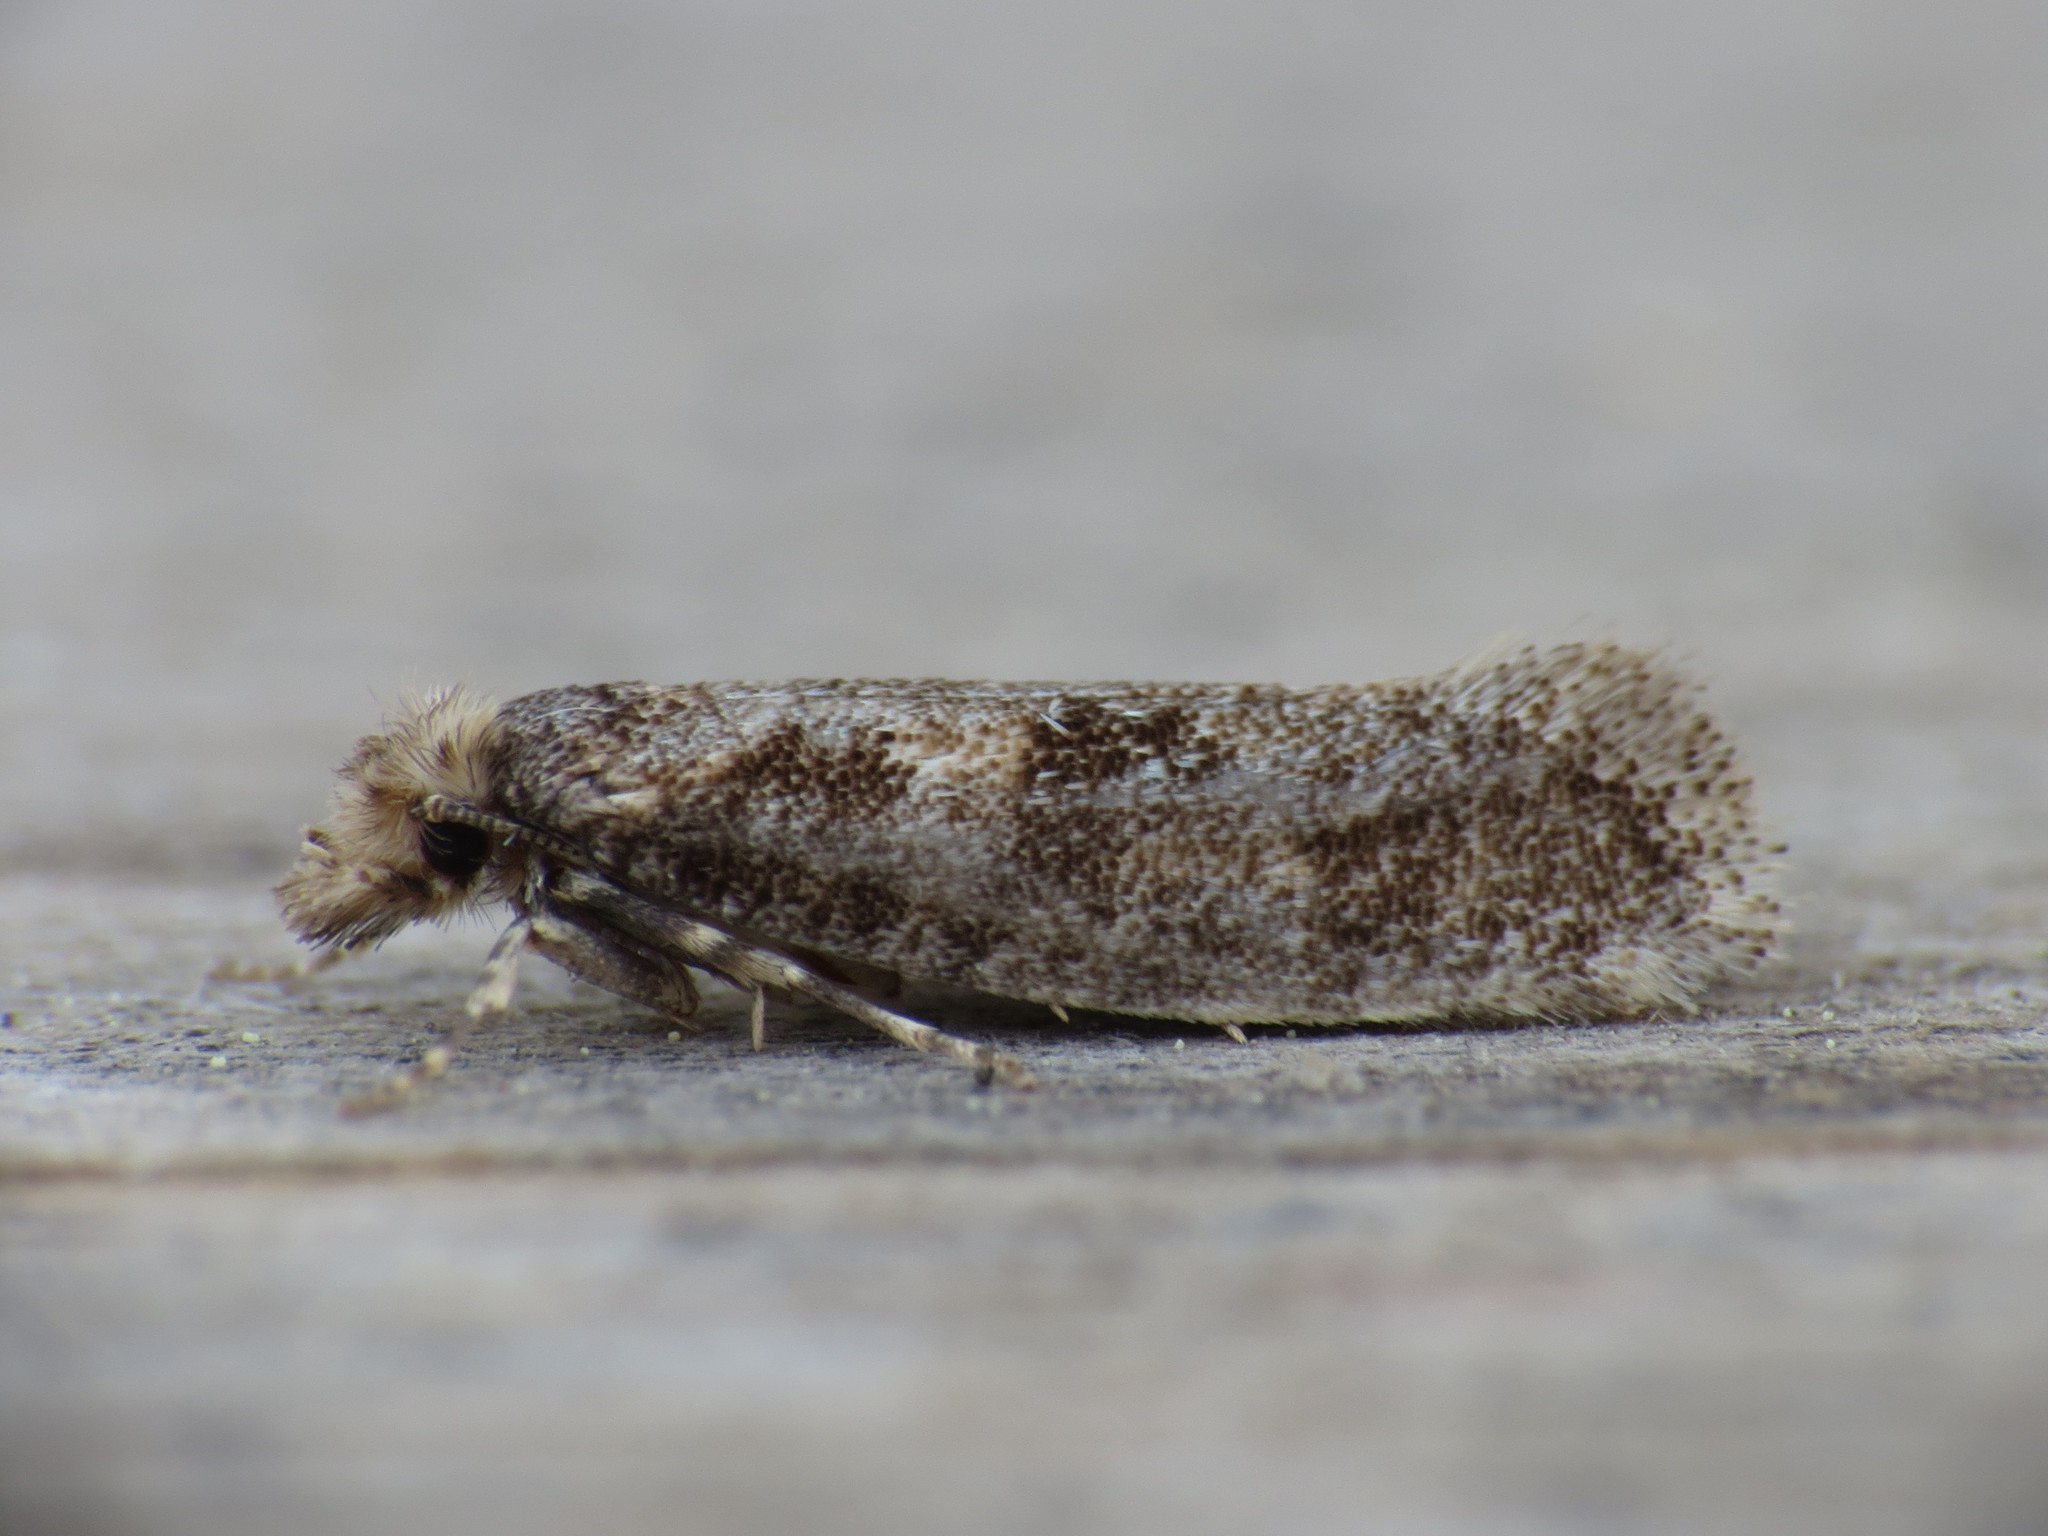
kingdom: Animalia
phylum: Arthropoda
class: Insecta
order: Lepidoptera
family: Tineidae
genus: Ateliotum
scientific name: Ateliotum insulare
